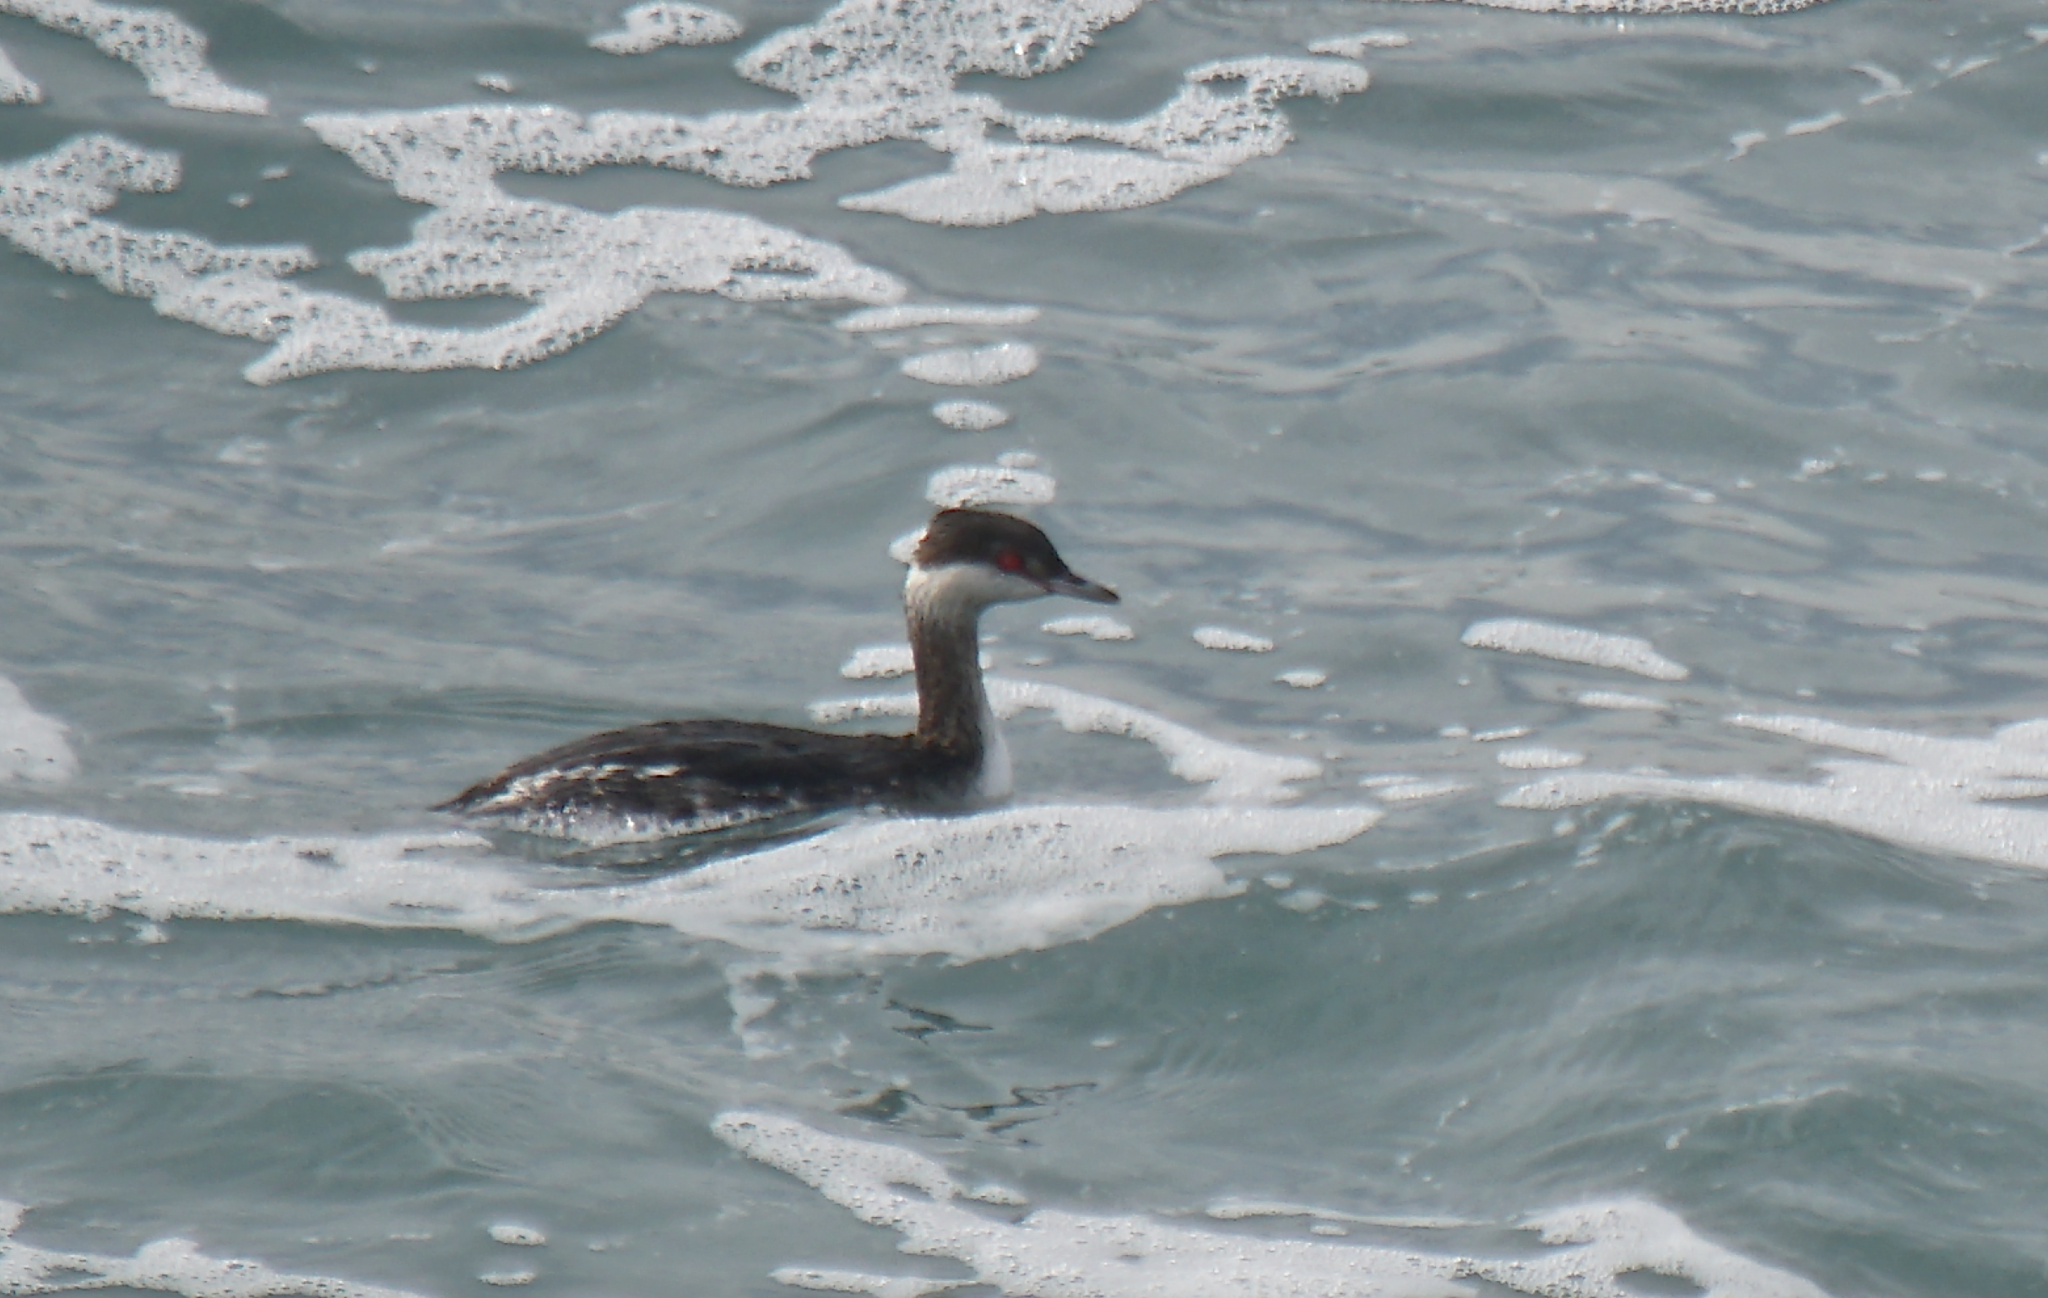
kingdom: Animalia
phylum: Chordata
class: Aves
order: Podicipediformes
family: Podicipedidae
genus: Podiceps
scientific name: Podiceps auritus
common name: Horned grebe
